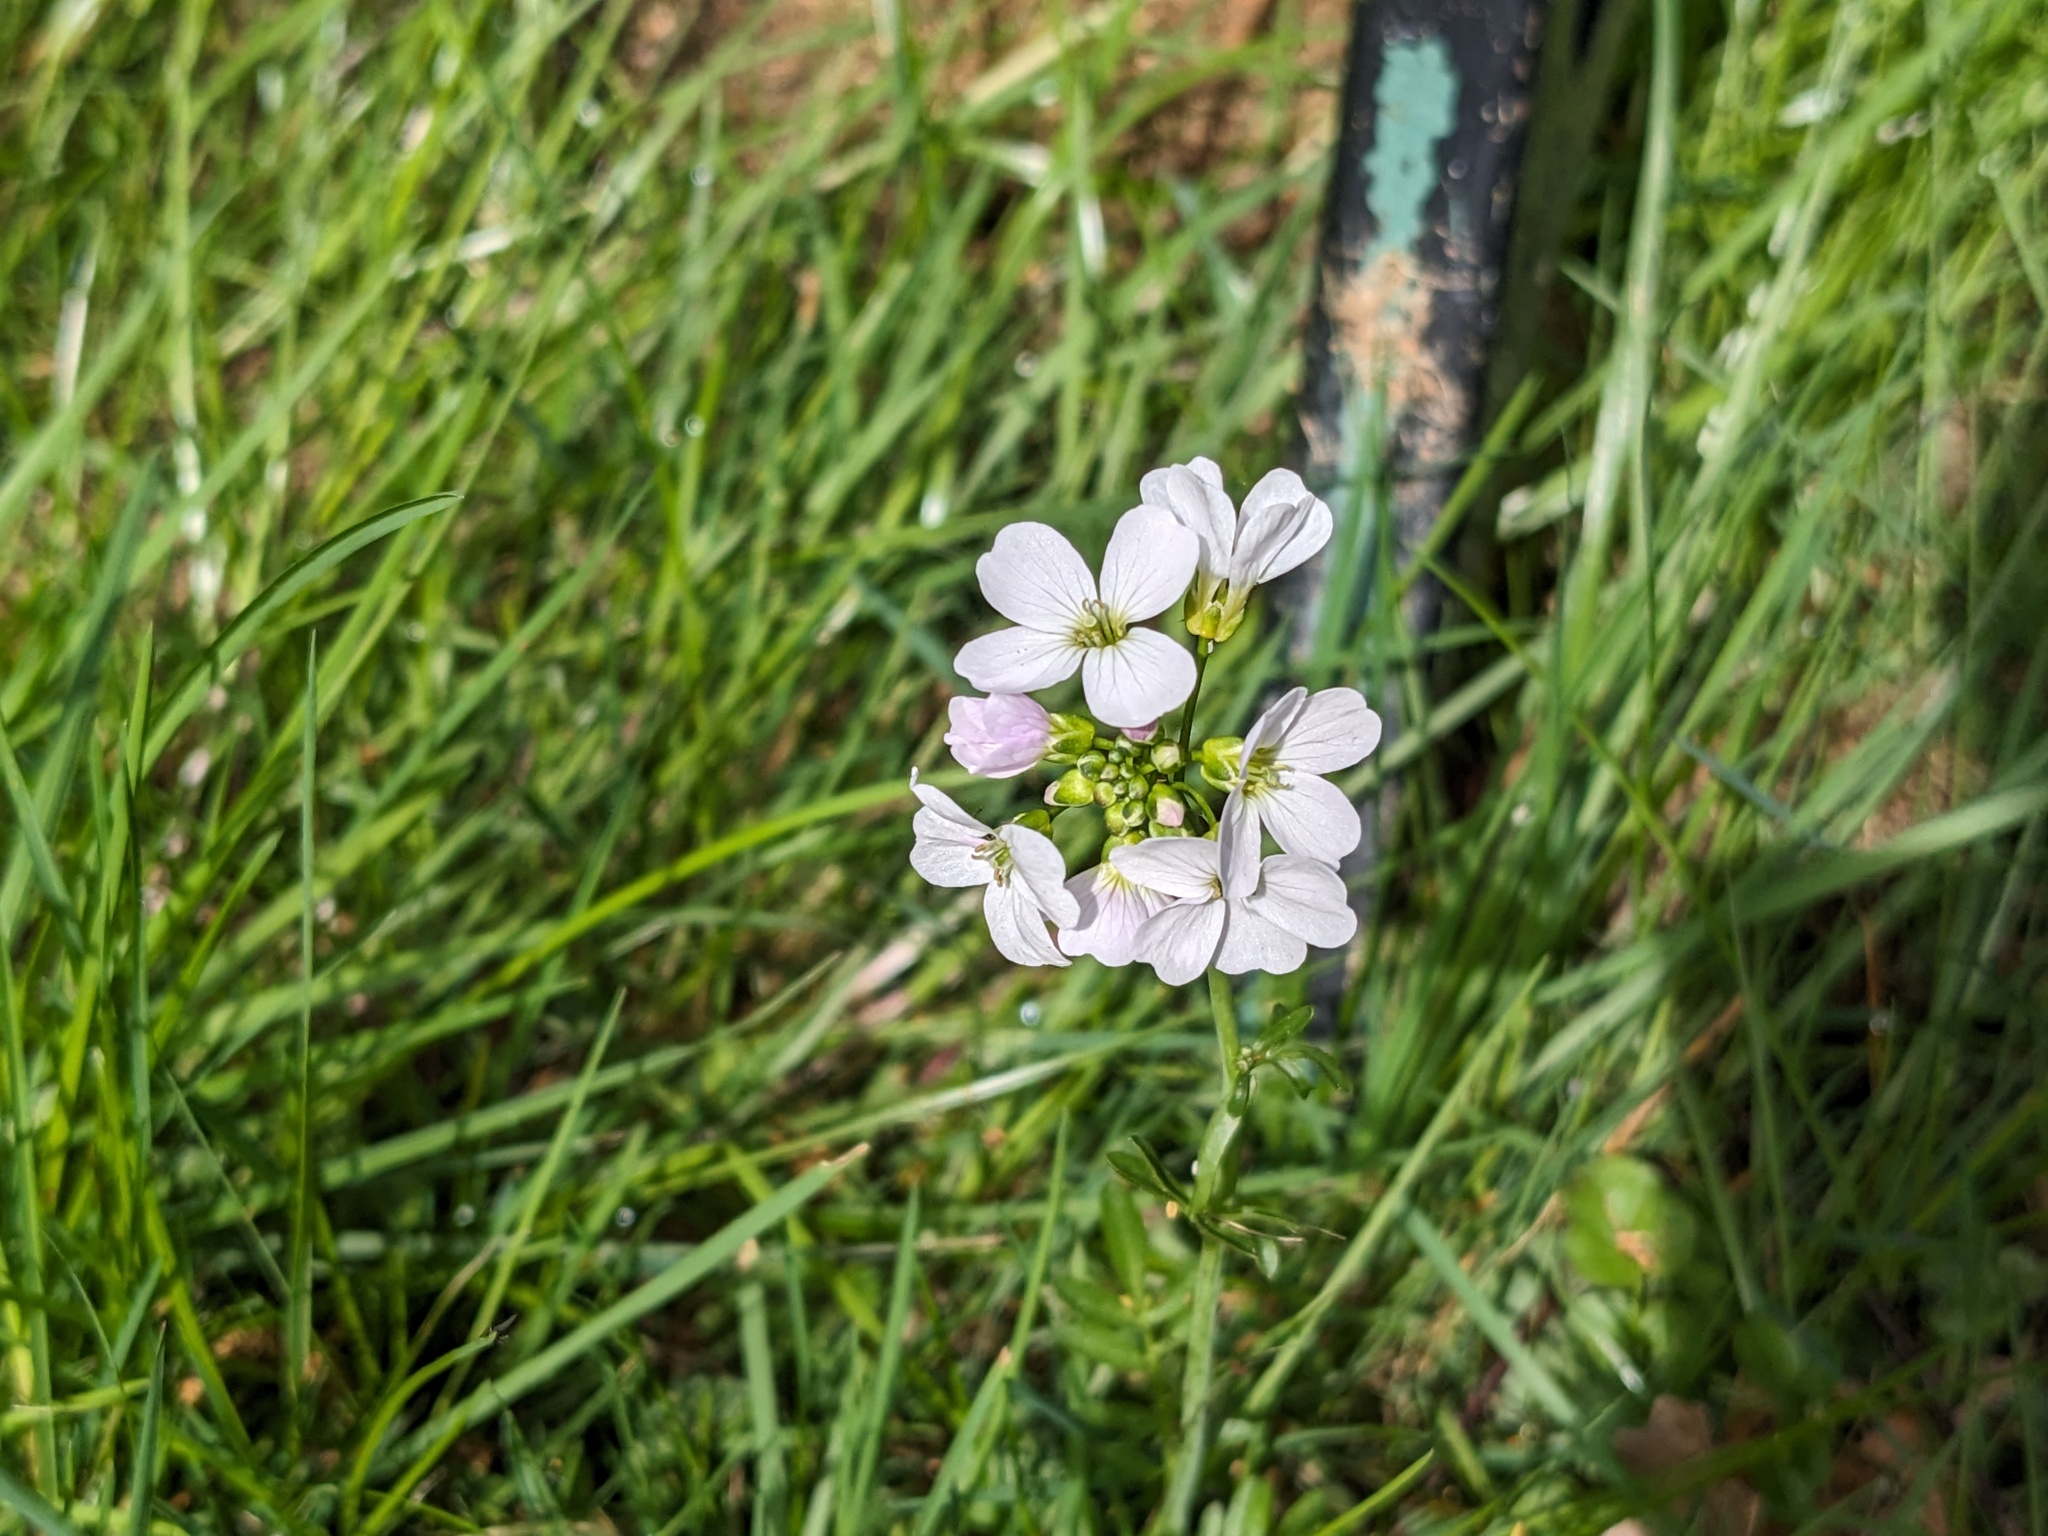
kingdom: Plantae
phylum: Tracheophyta
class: Magnoliopsida
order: Brassicales
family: Brassicaceae
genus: Cardamine
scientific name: Cardamine pratensis
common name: Cuckoo flower
